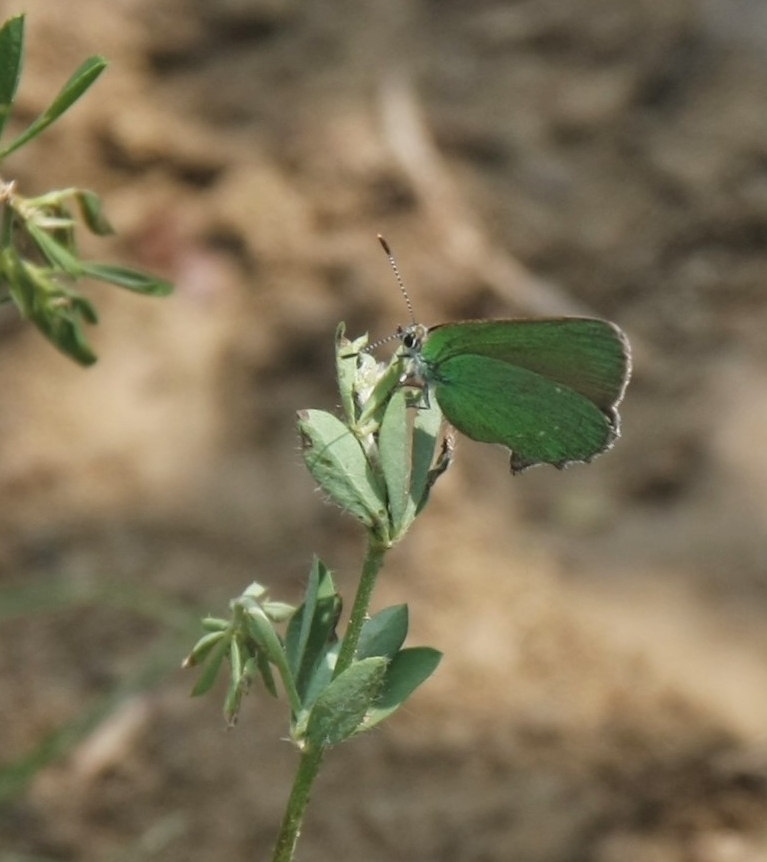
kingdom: Animalia
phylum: Arthropoda
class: Insecta
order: Lepidoptera
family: Lycaenidae
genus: Callophrys
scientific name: Callophrys rubi
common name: Green hairstreak
